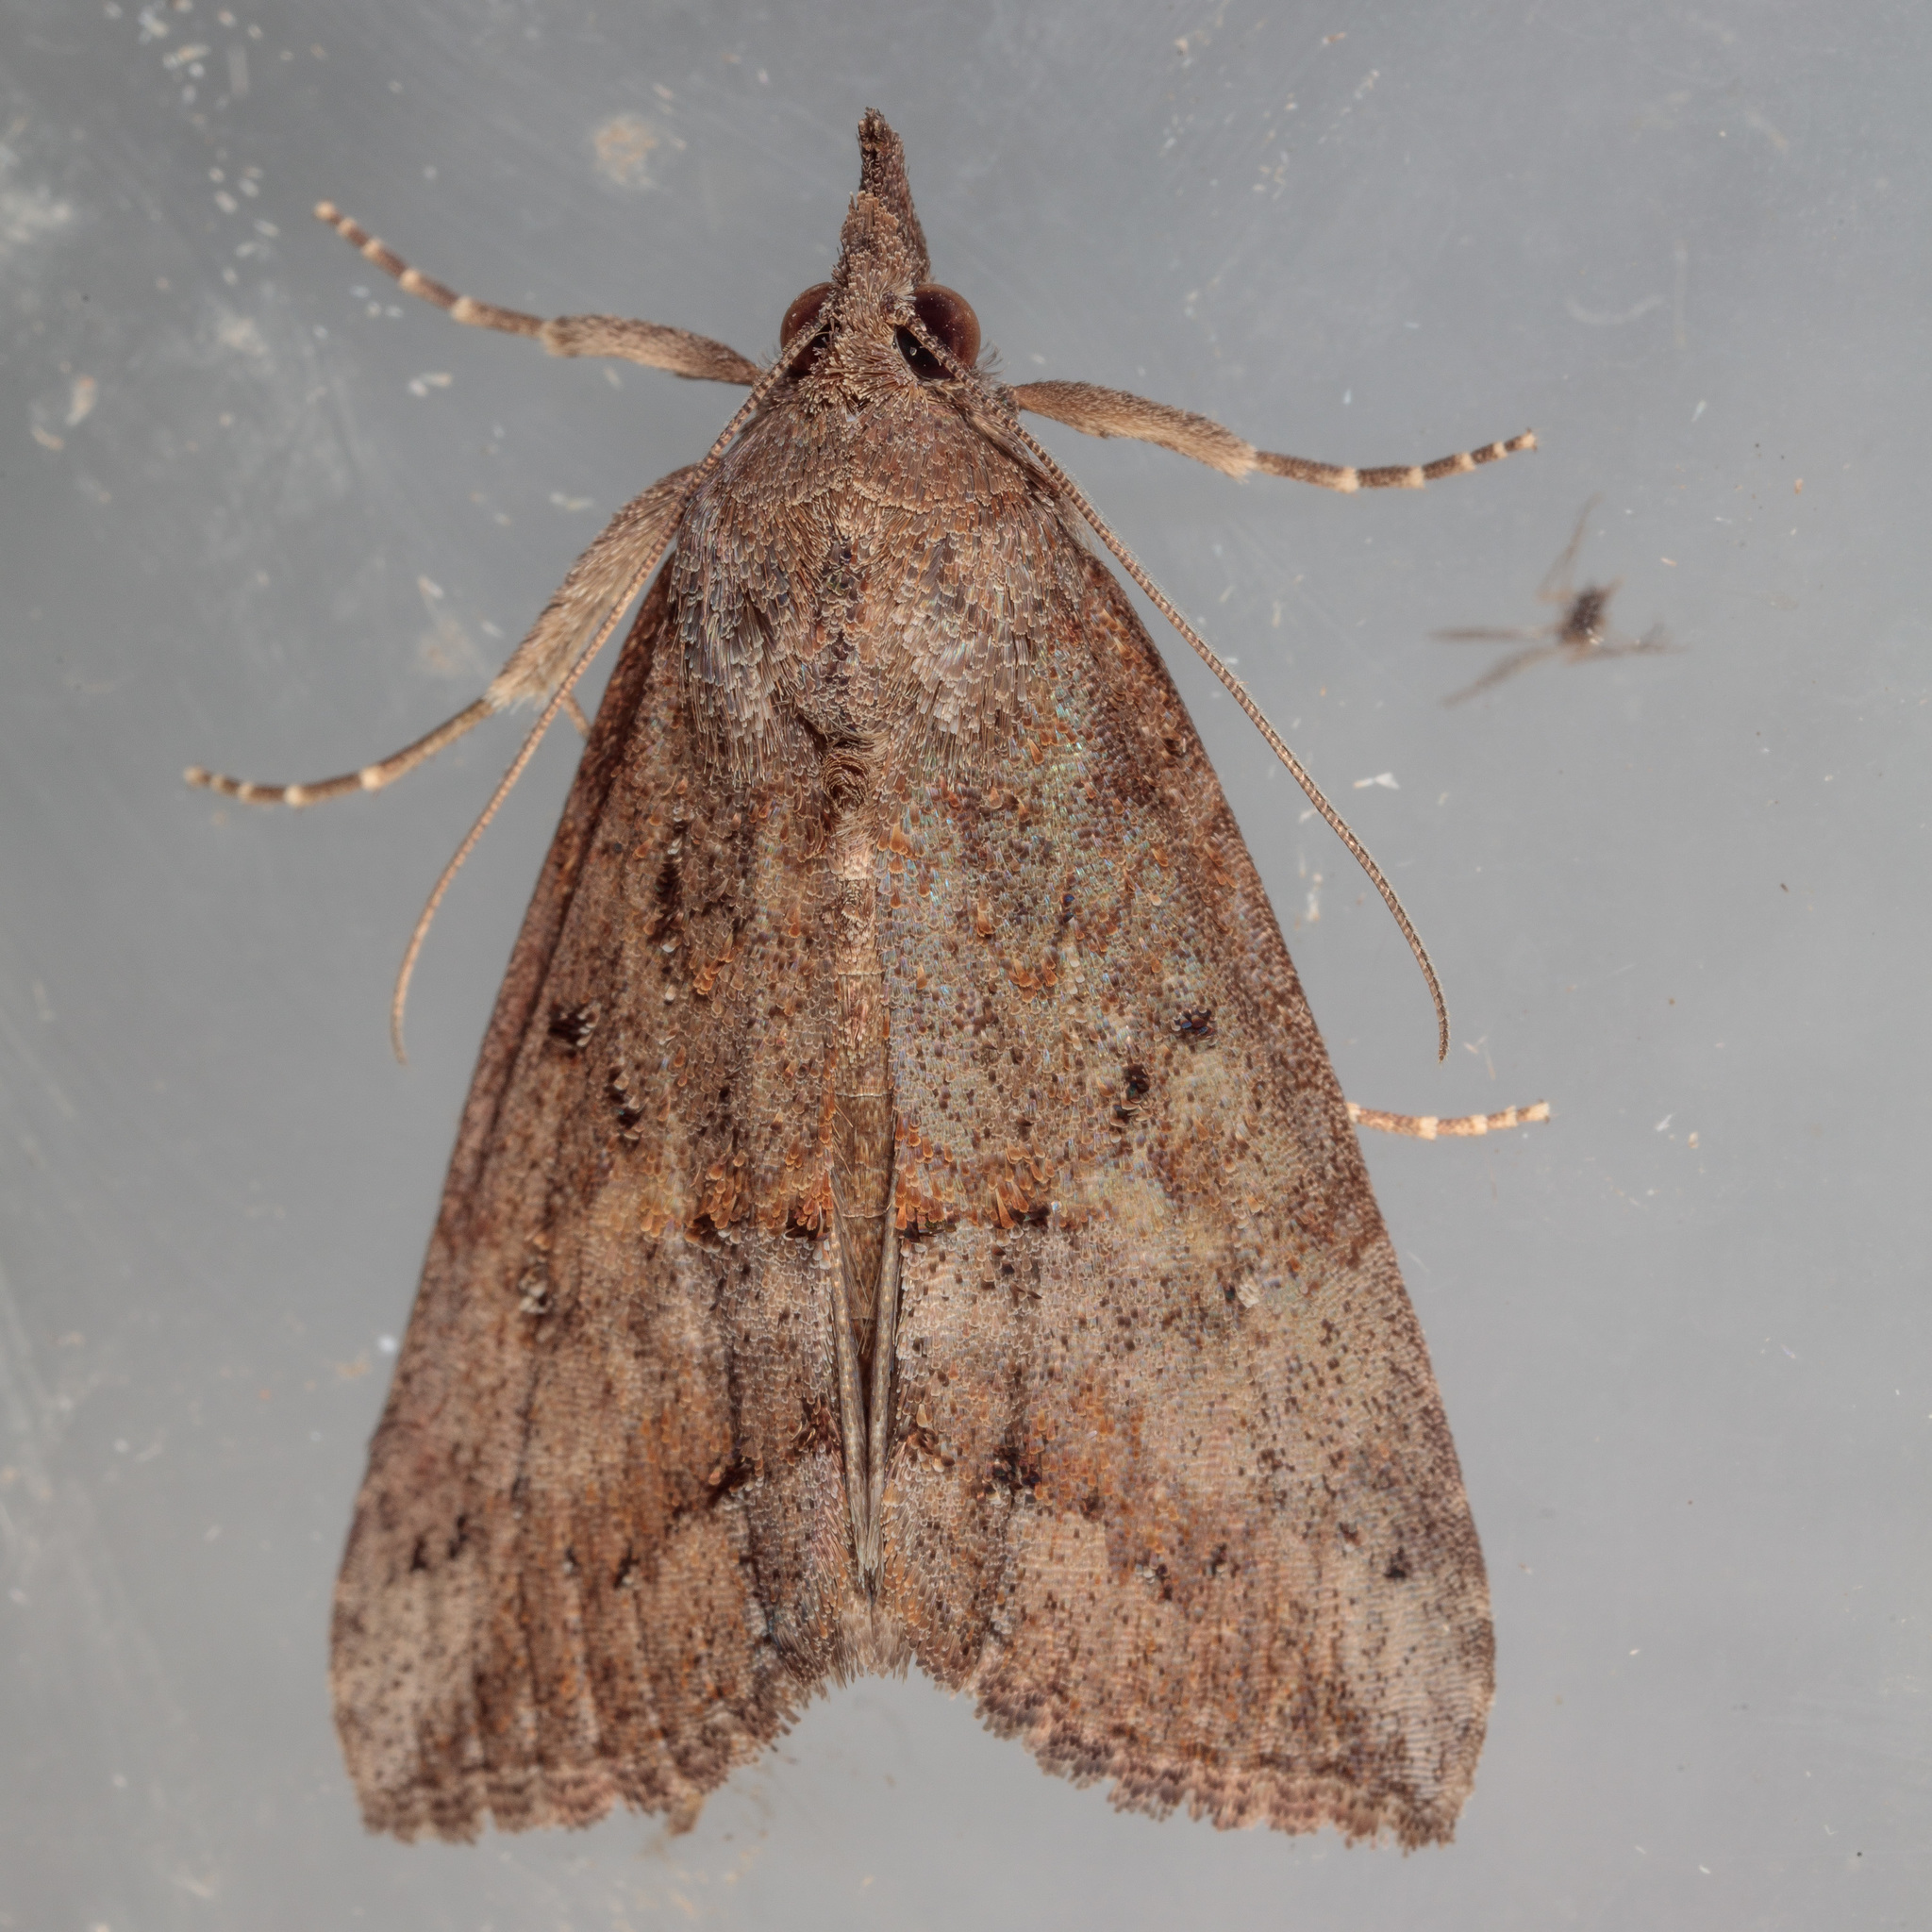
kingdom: Animalia
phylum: Arthropoda
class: Insecta
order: Lepidoptera
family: Erebidae
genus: Hypena
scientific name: Hypena scabra
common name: Green cloverworm
